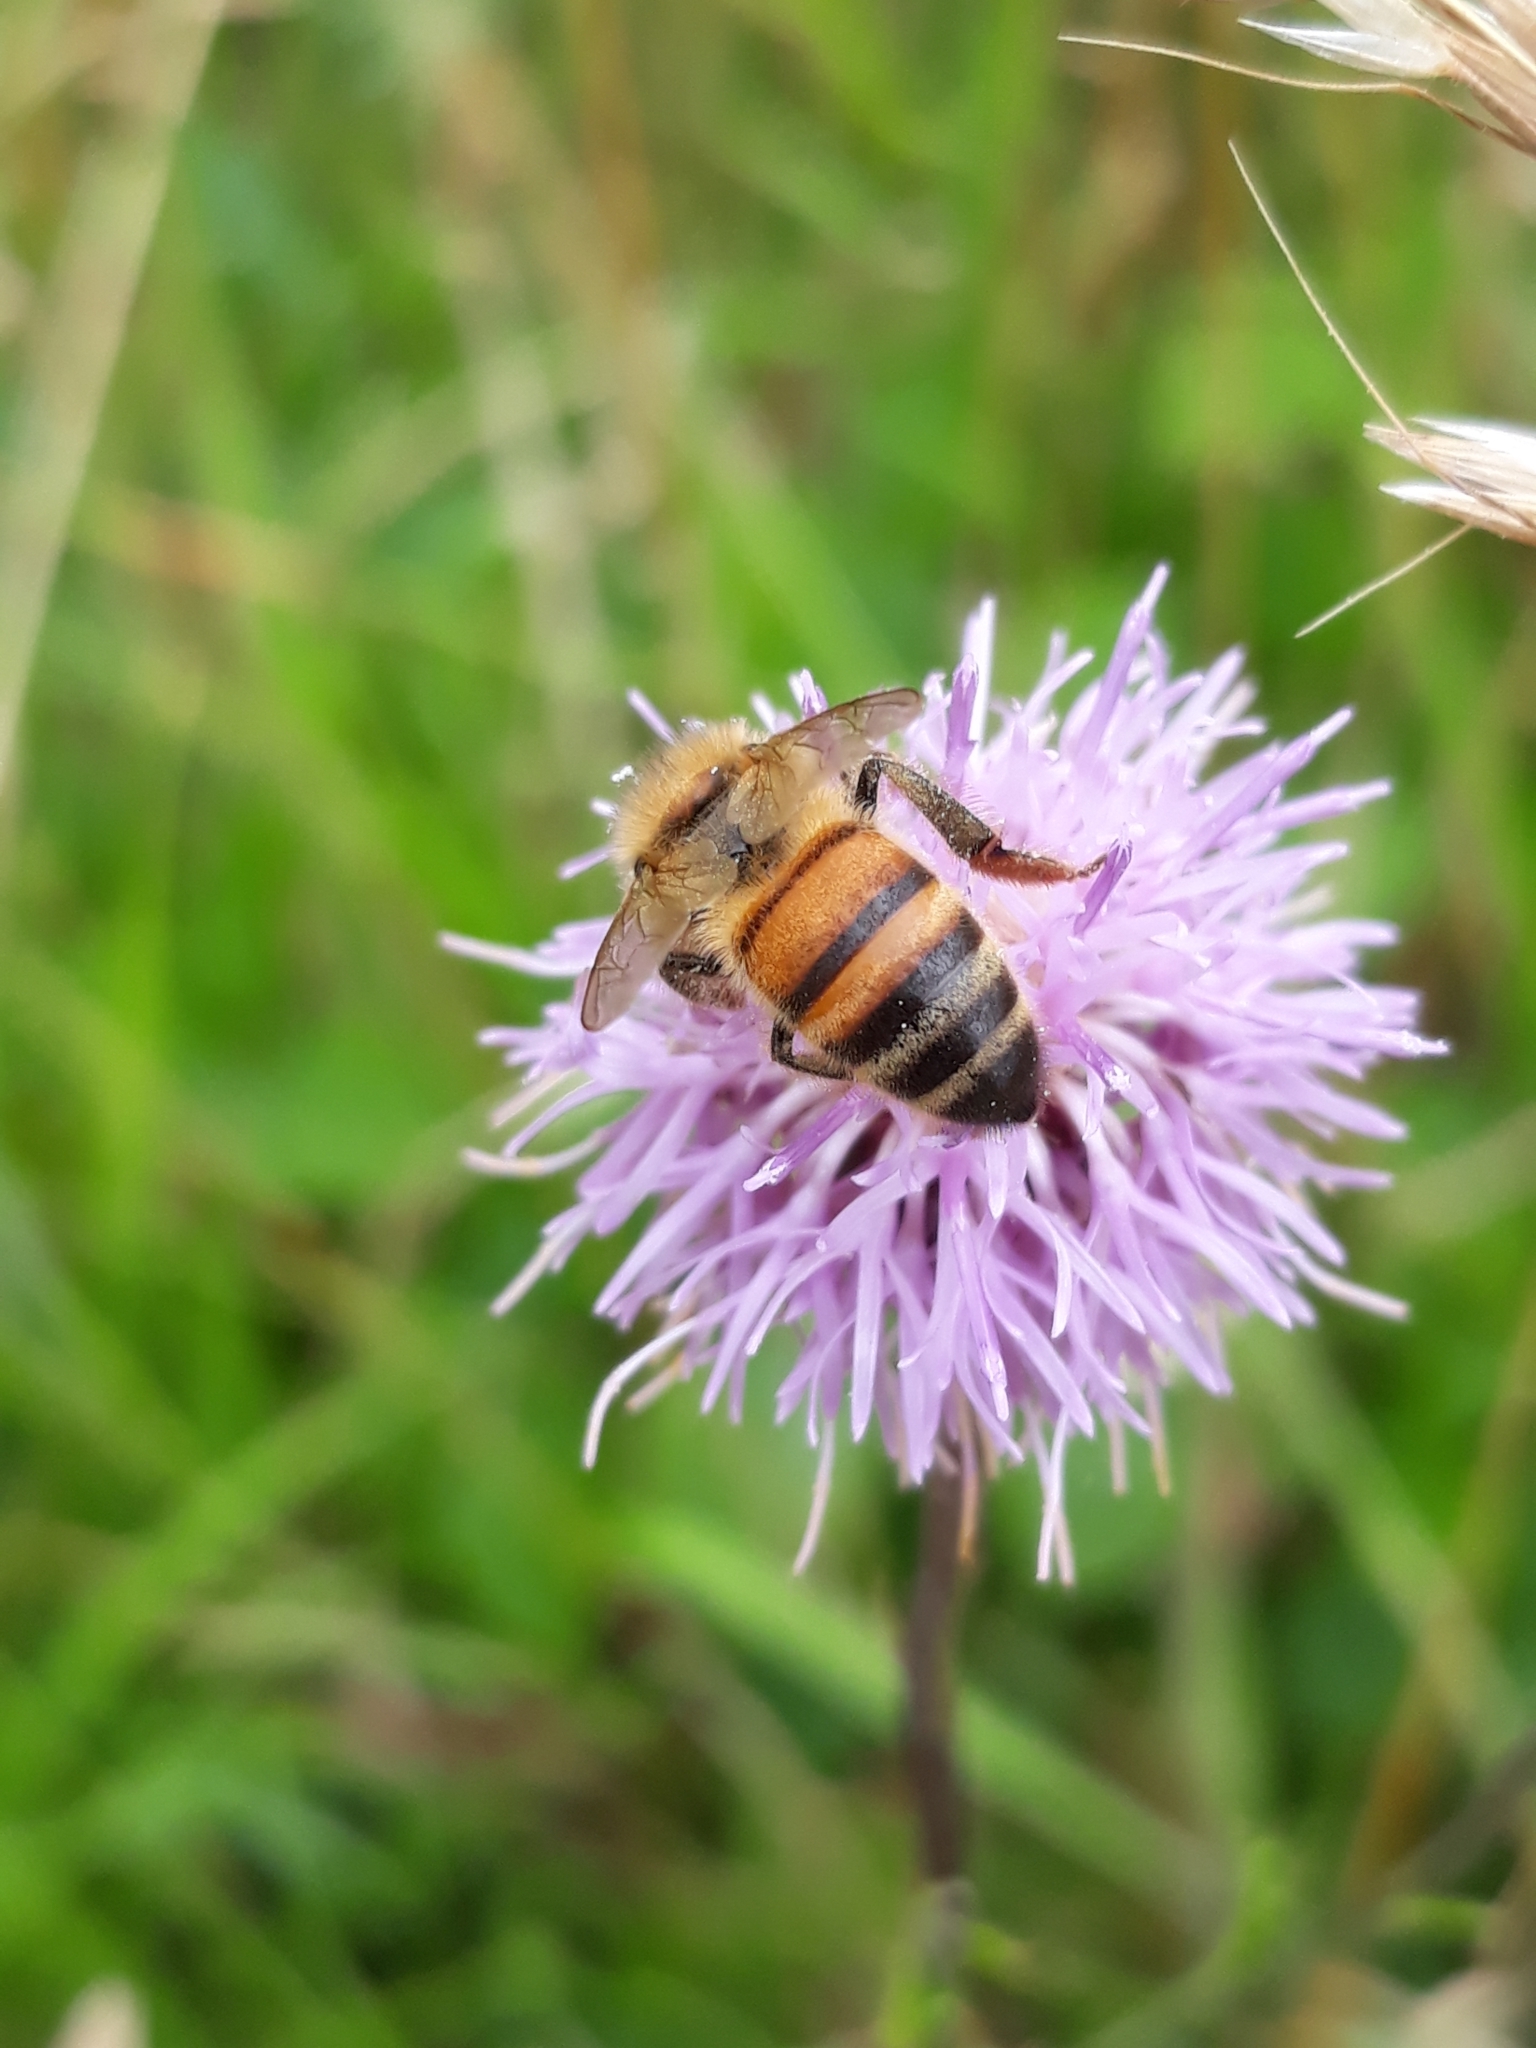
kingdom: Animalia
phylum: Arthropoda
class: Insecta
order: Hymenoptera
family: Apidae
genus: Apis
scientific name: Apis mellifera
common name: Honey bee
